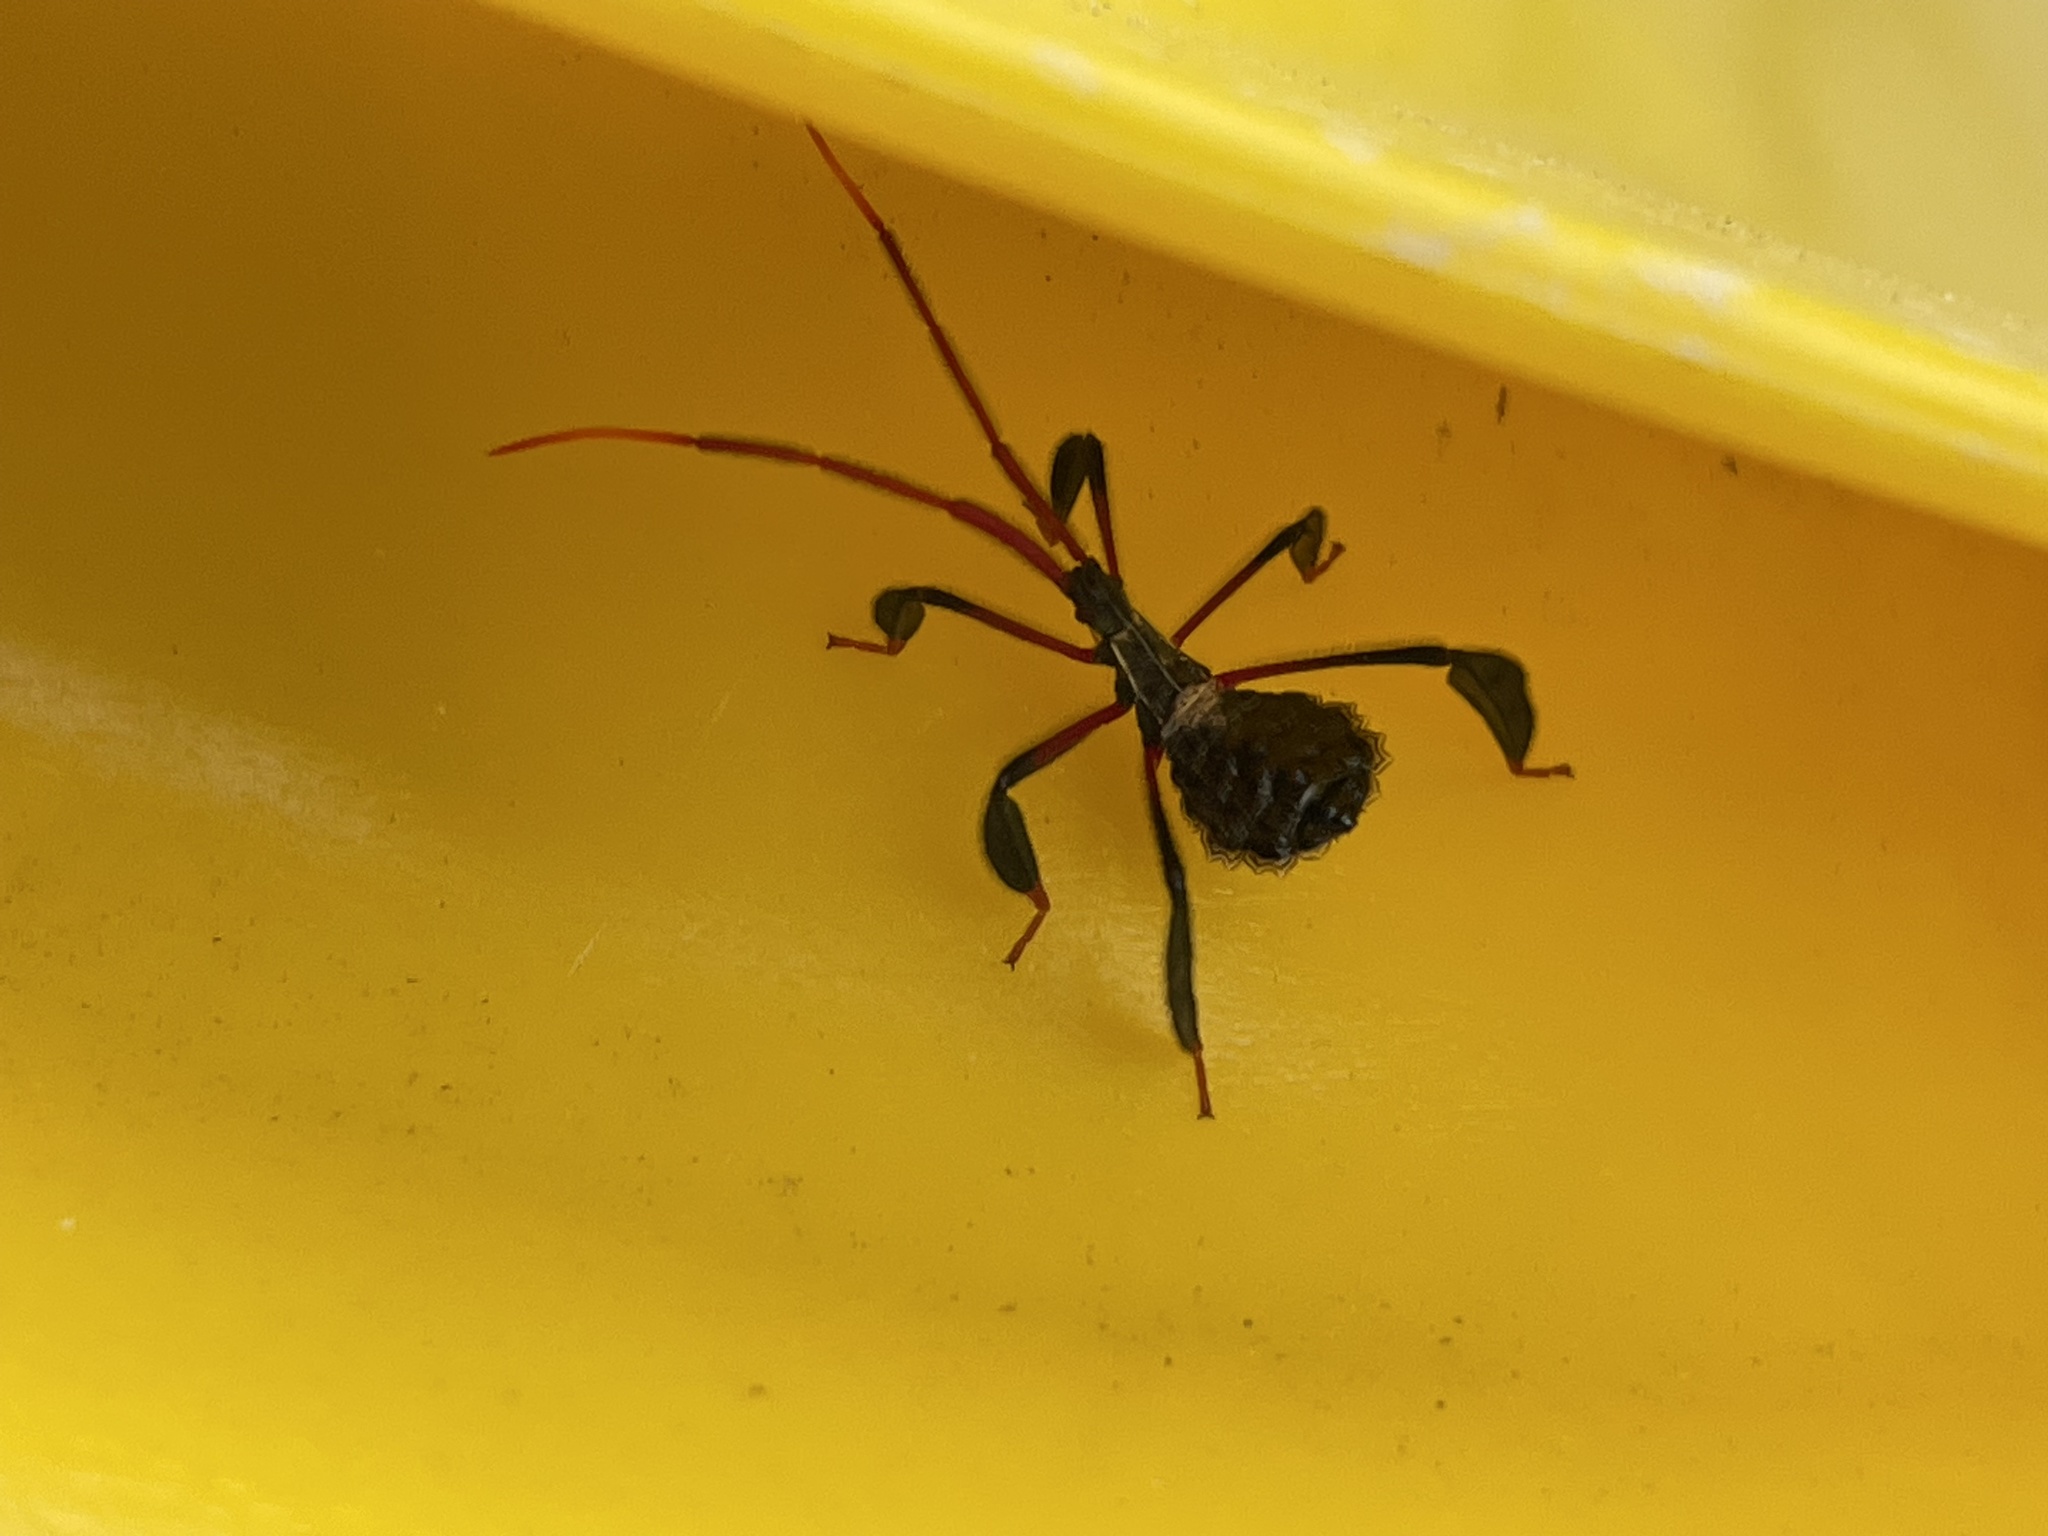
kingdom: Animalia
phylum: Arthropoda
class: Insecta
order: Hemiptera
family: Coreidae
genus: Acanthocephala
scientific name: Acanthocephala terminalis
